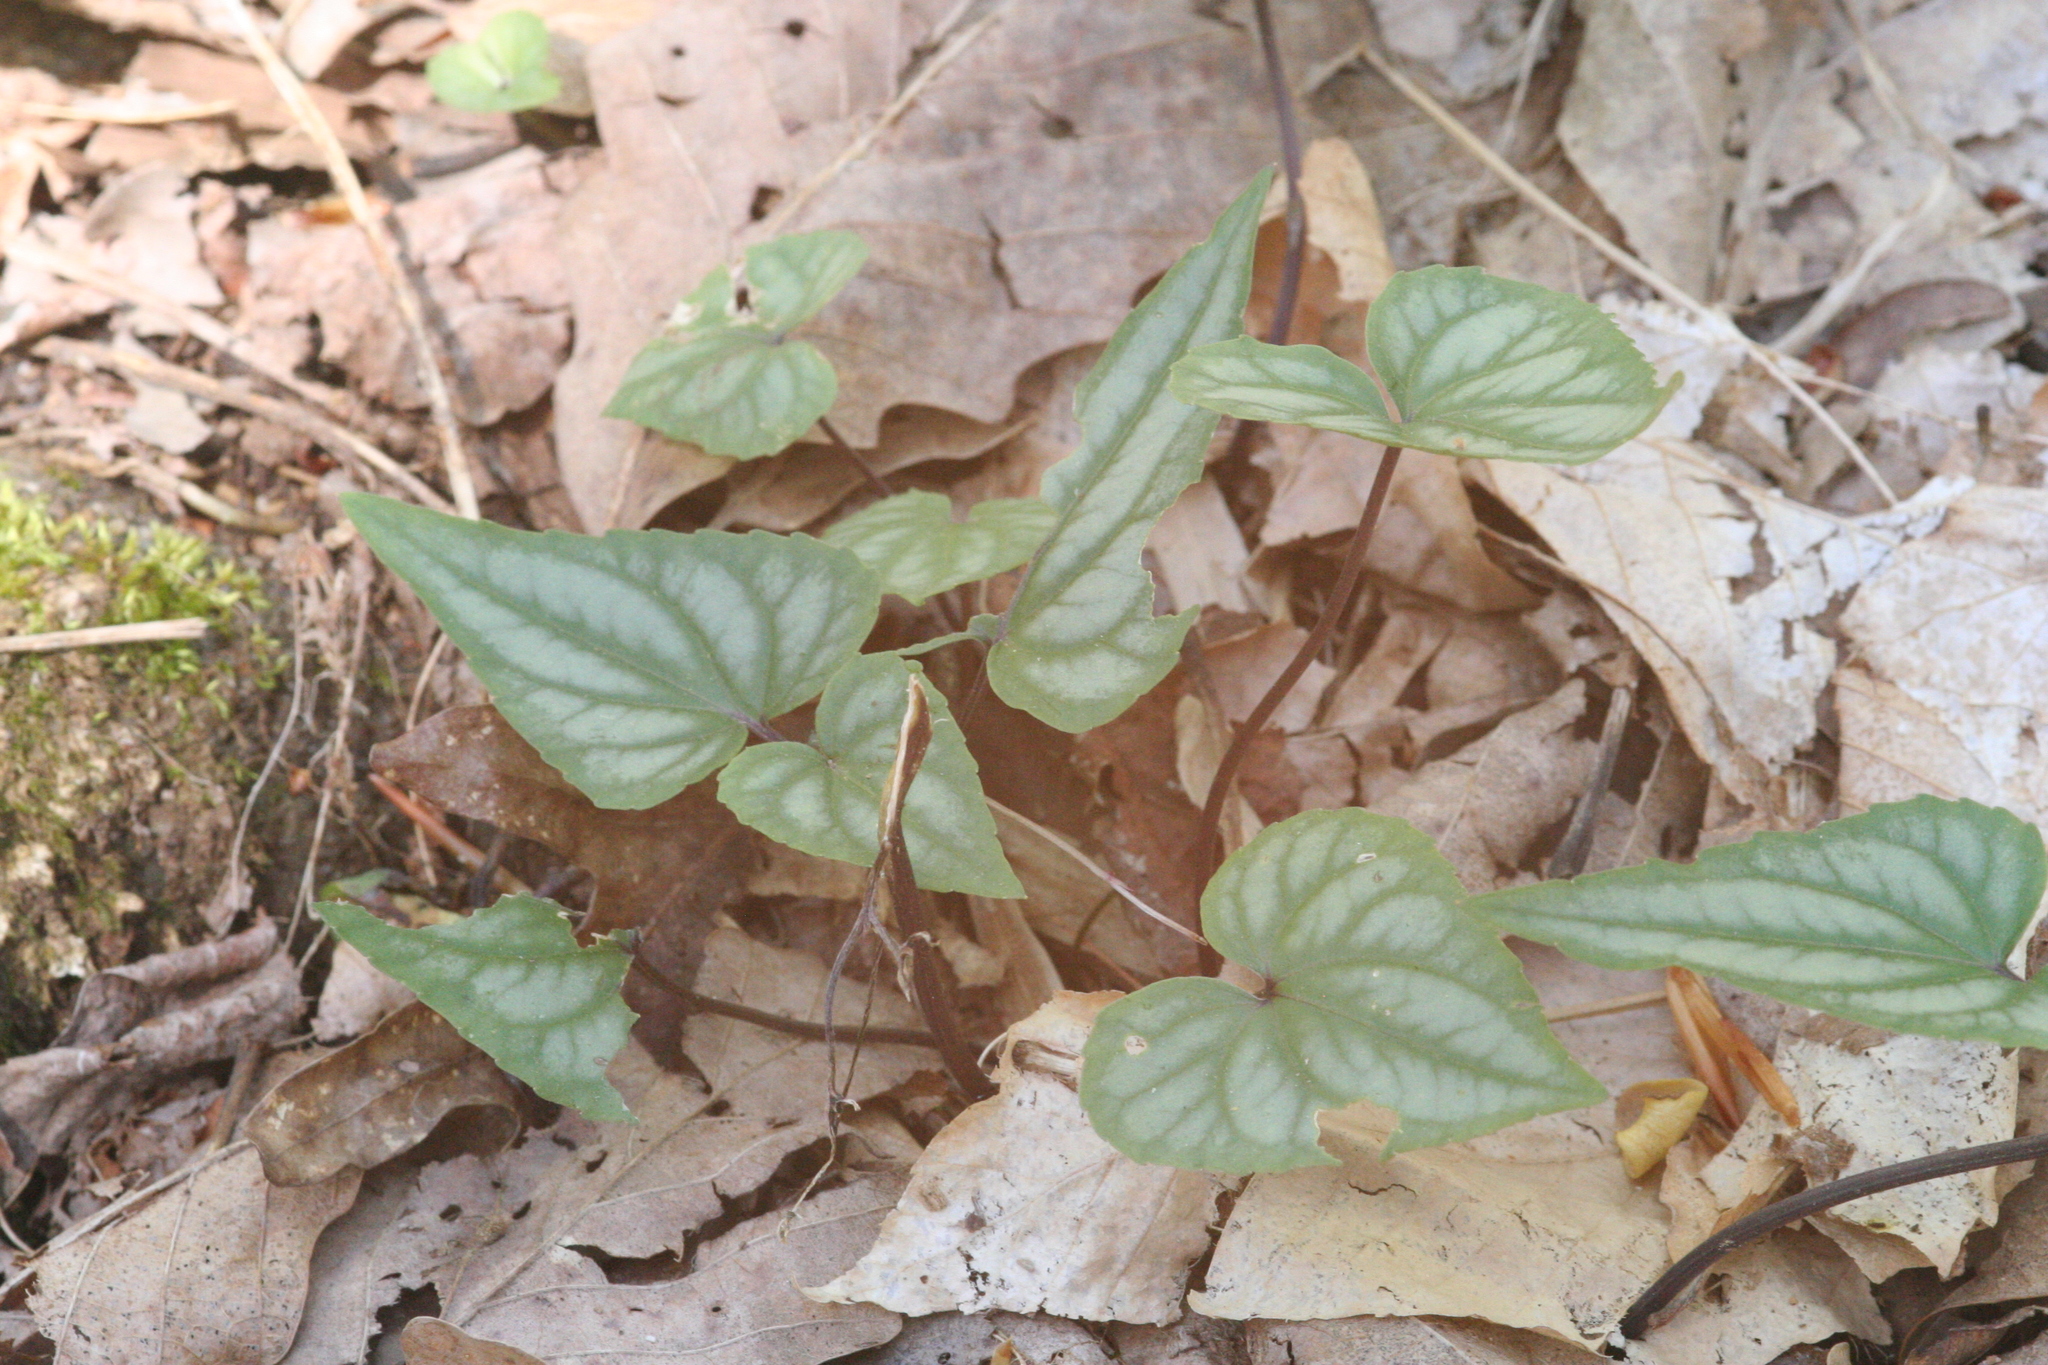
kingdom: Plantae
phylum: Tracheophyta
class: Magnoliopsida
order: Malpighiales
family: Violaceae
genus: Viola
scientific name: Viola hastata
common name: Spear-leaf violet
